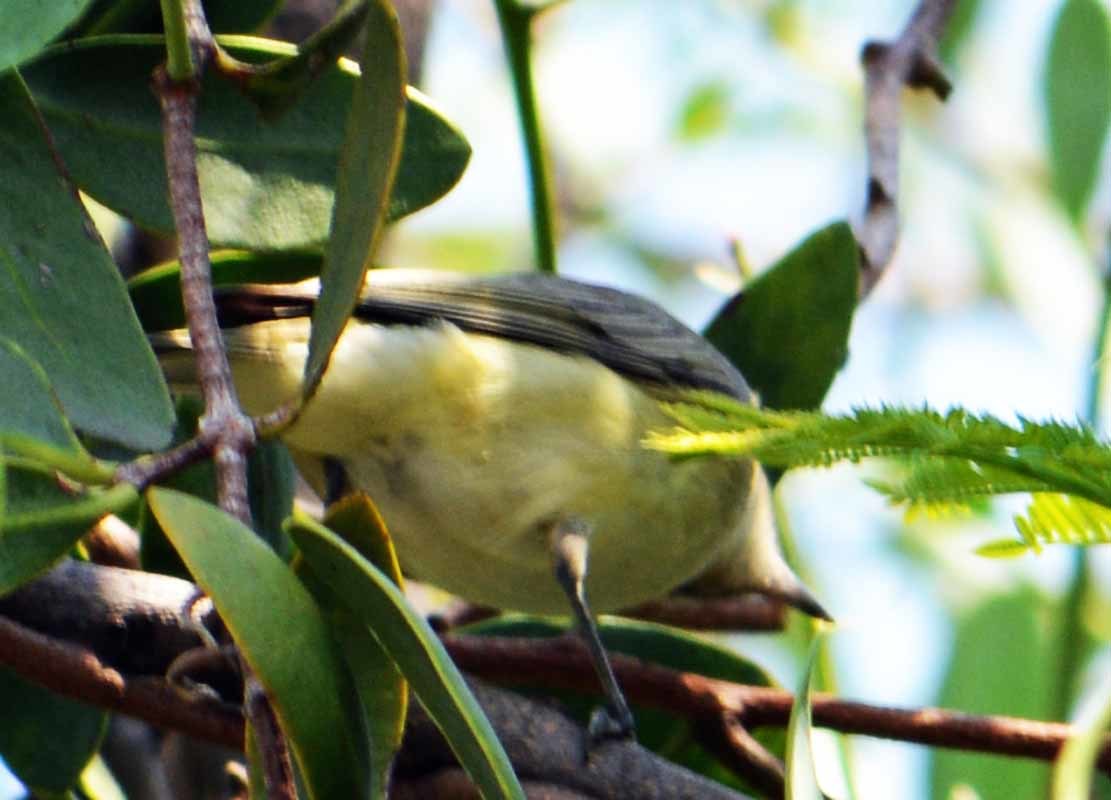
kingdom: Animalia
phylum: Chordata
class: Aves
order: Passeriformes
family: Vireonidae
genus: Vireo
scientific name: Vireo philadelphicus
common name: Philadelphia vireo
